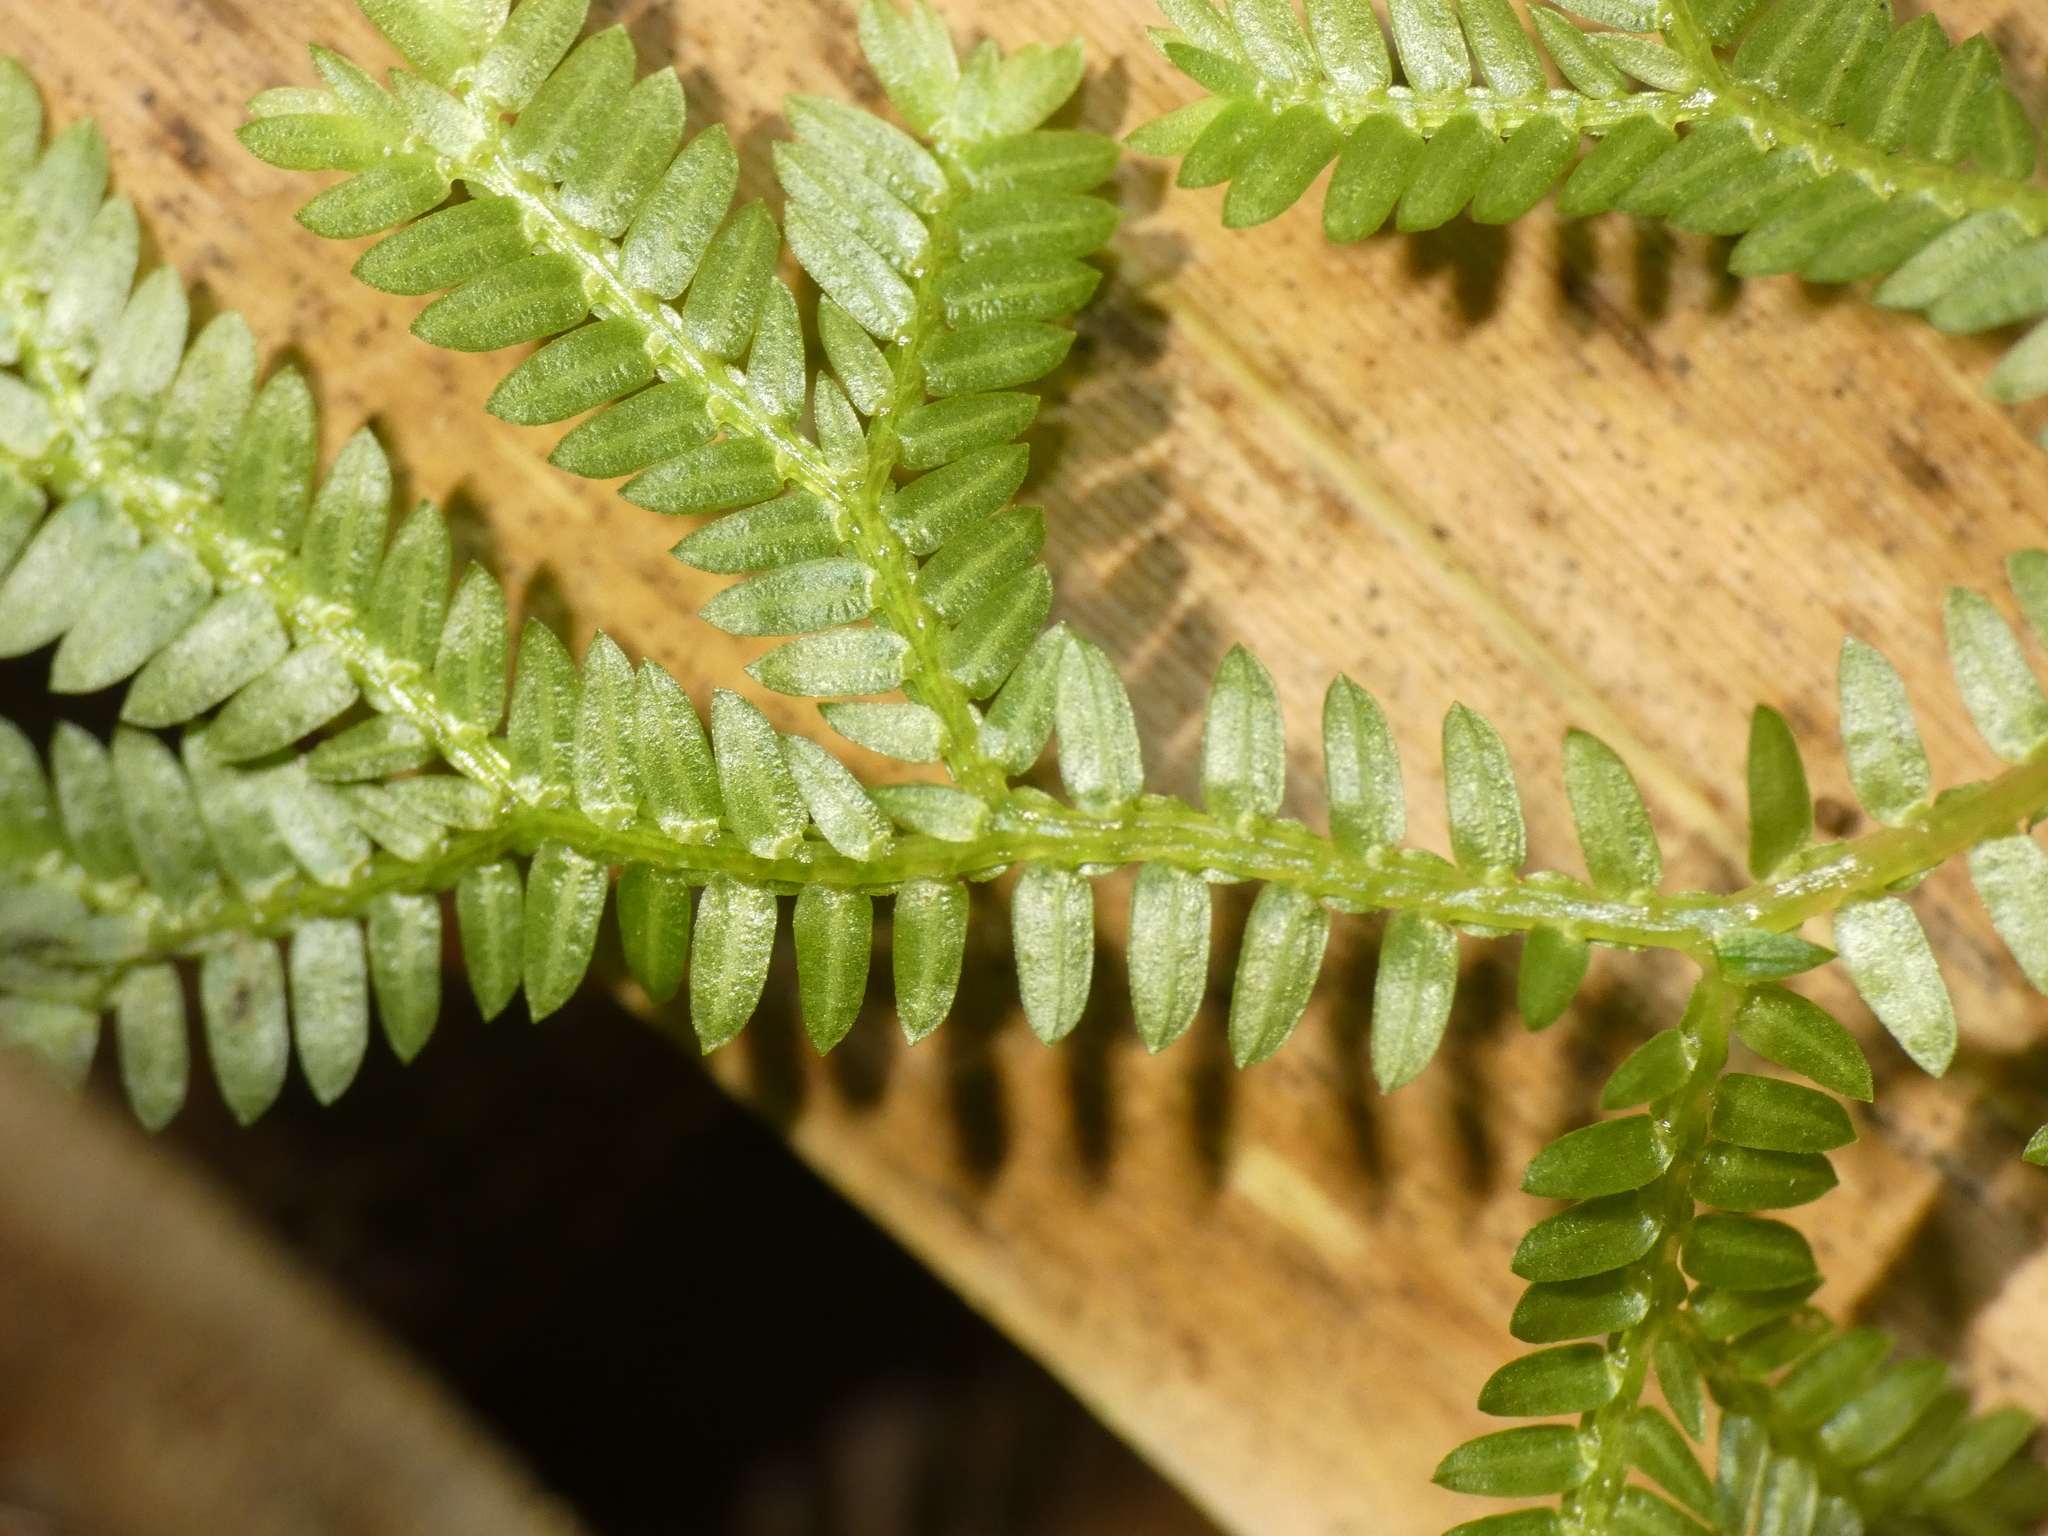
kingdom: Plantae
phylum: Tracheophyta
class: Lycopodiopsida
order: Selaginellales
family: Selaginellaceae
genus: Selaginella
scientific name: Selaginella australiensis
